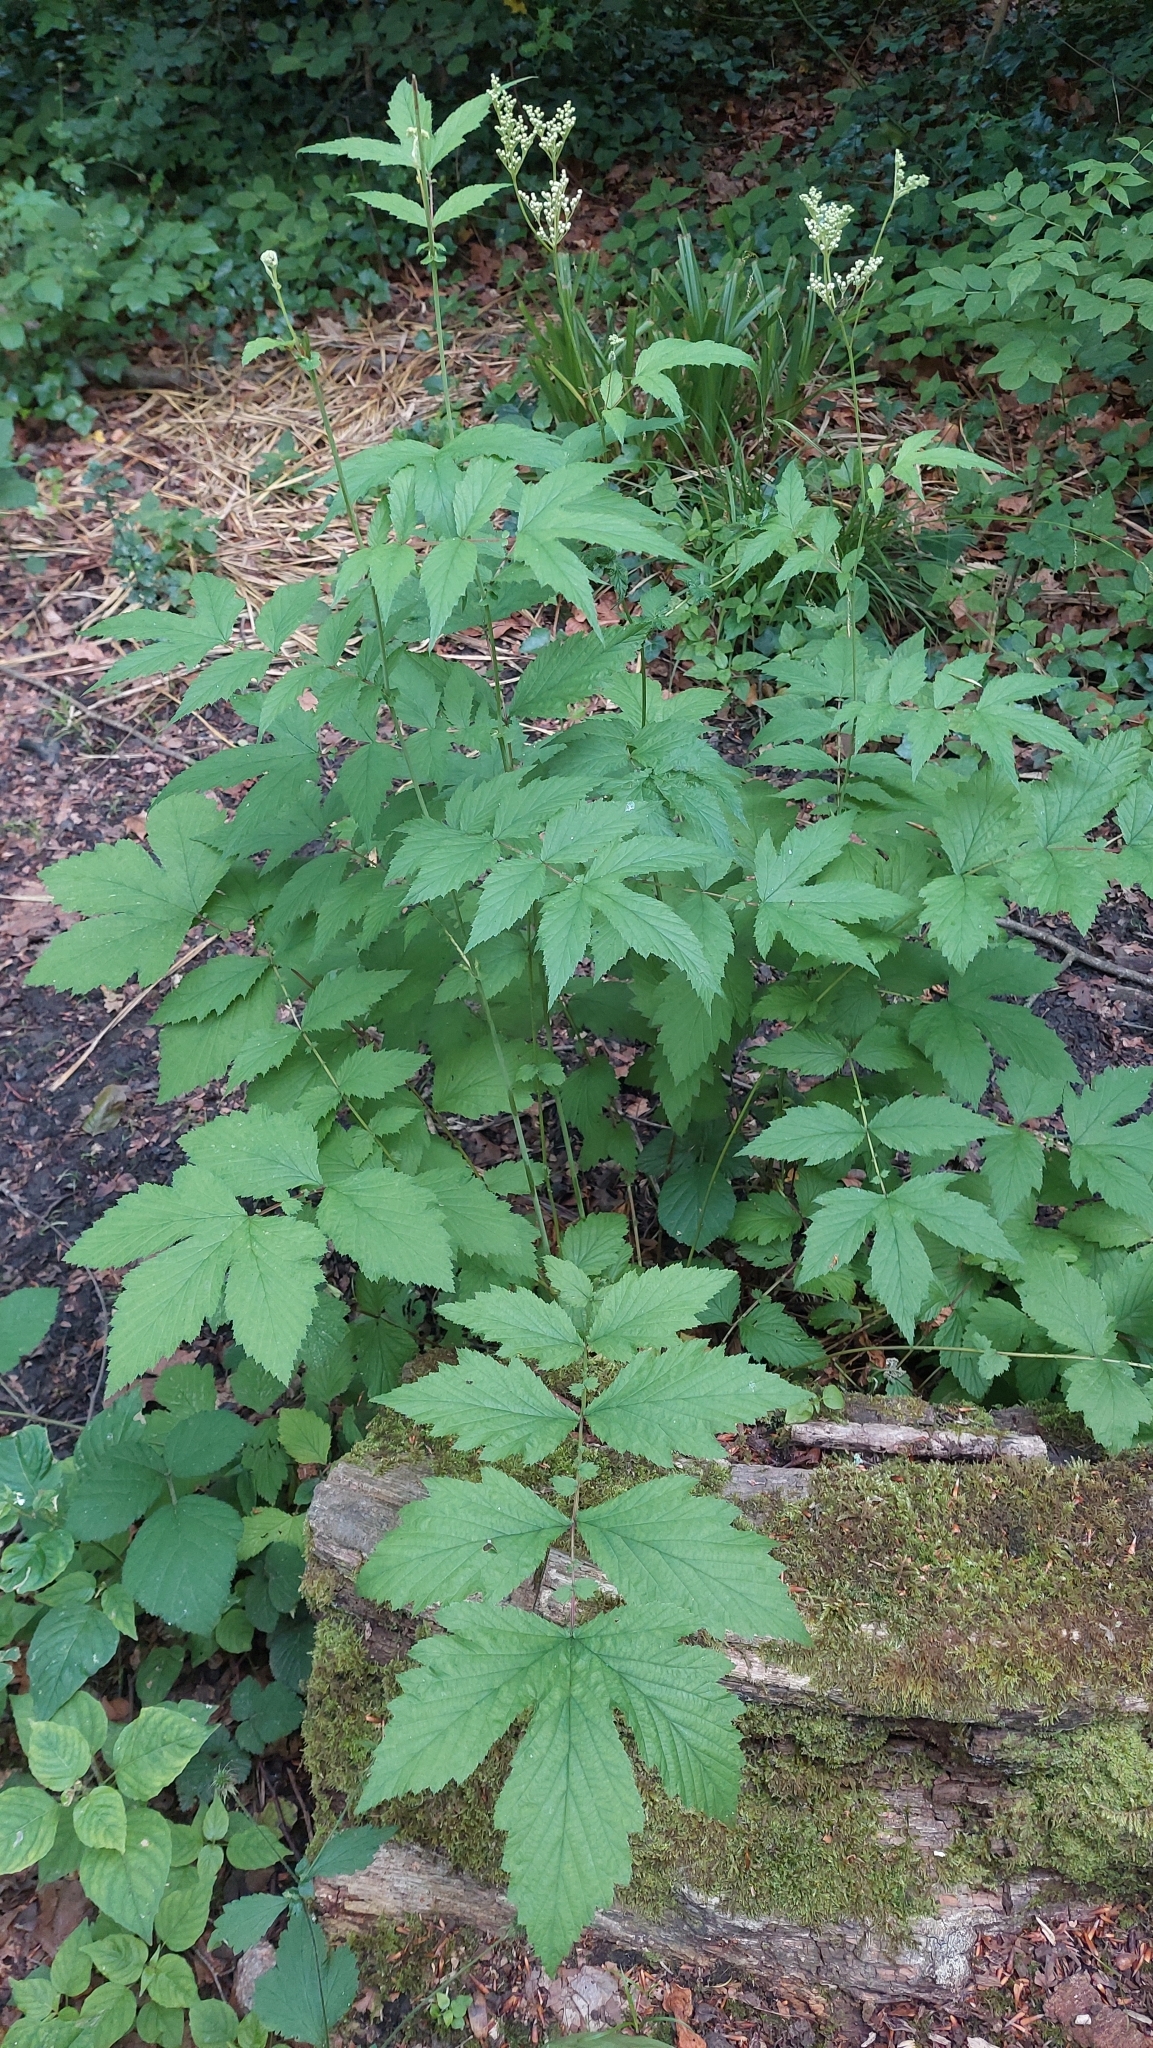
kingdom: Plantae
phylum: Tracheophyta
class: Magnoliopsida
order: Rosales
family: Rosaceae
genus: Filipendula
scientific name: Filipendula ulmaria
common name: Meadowsweet
